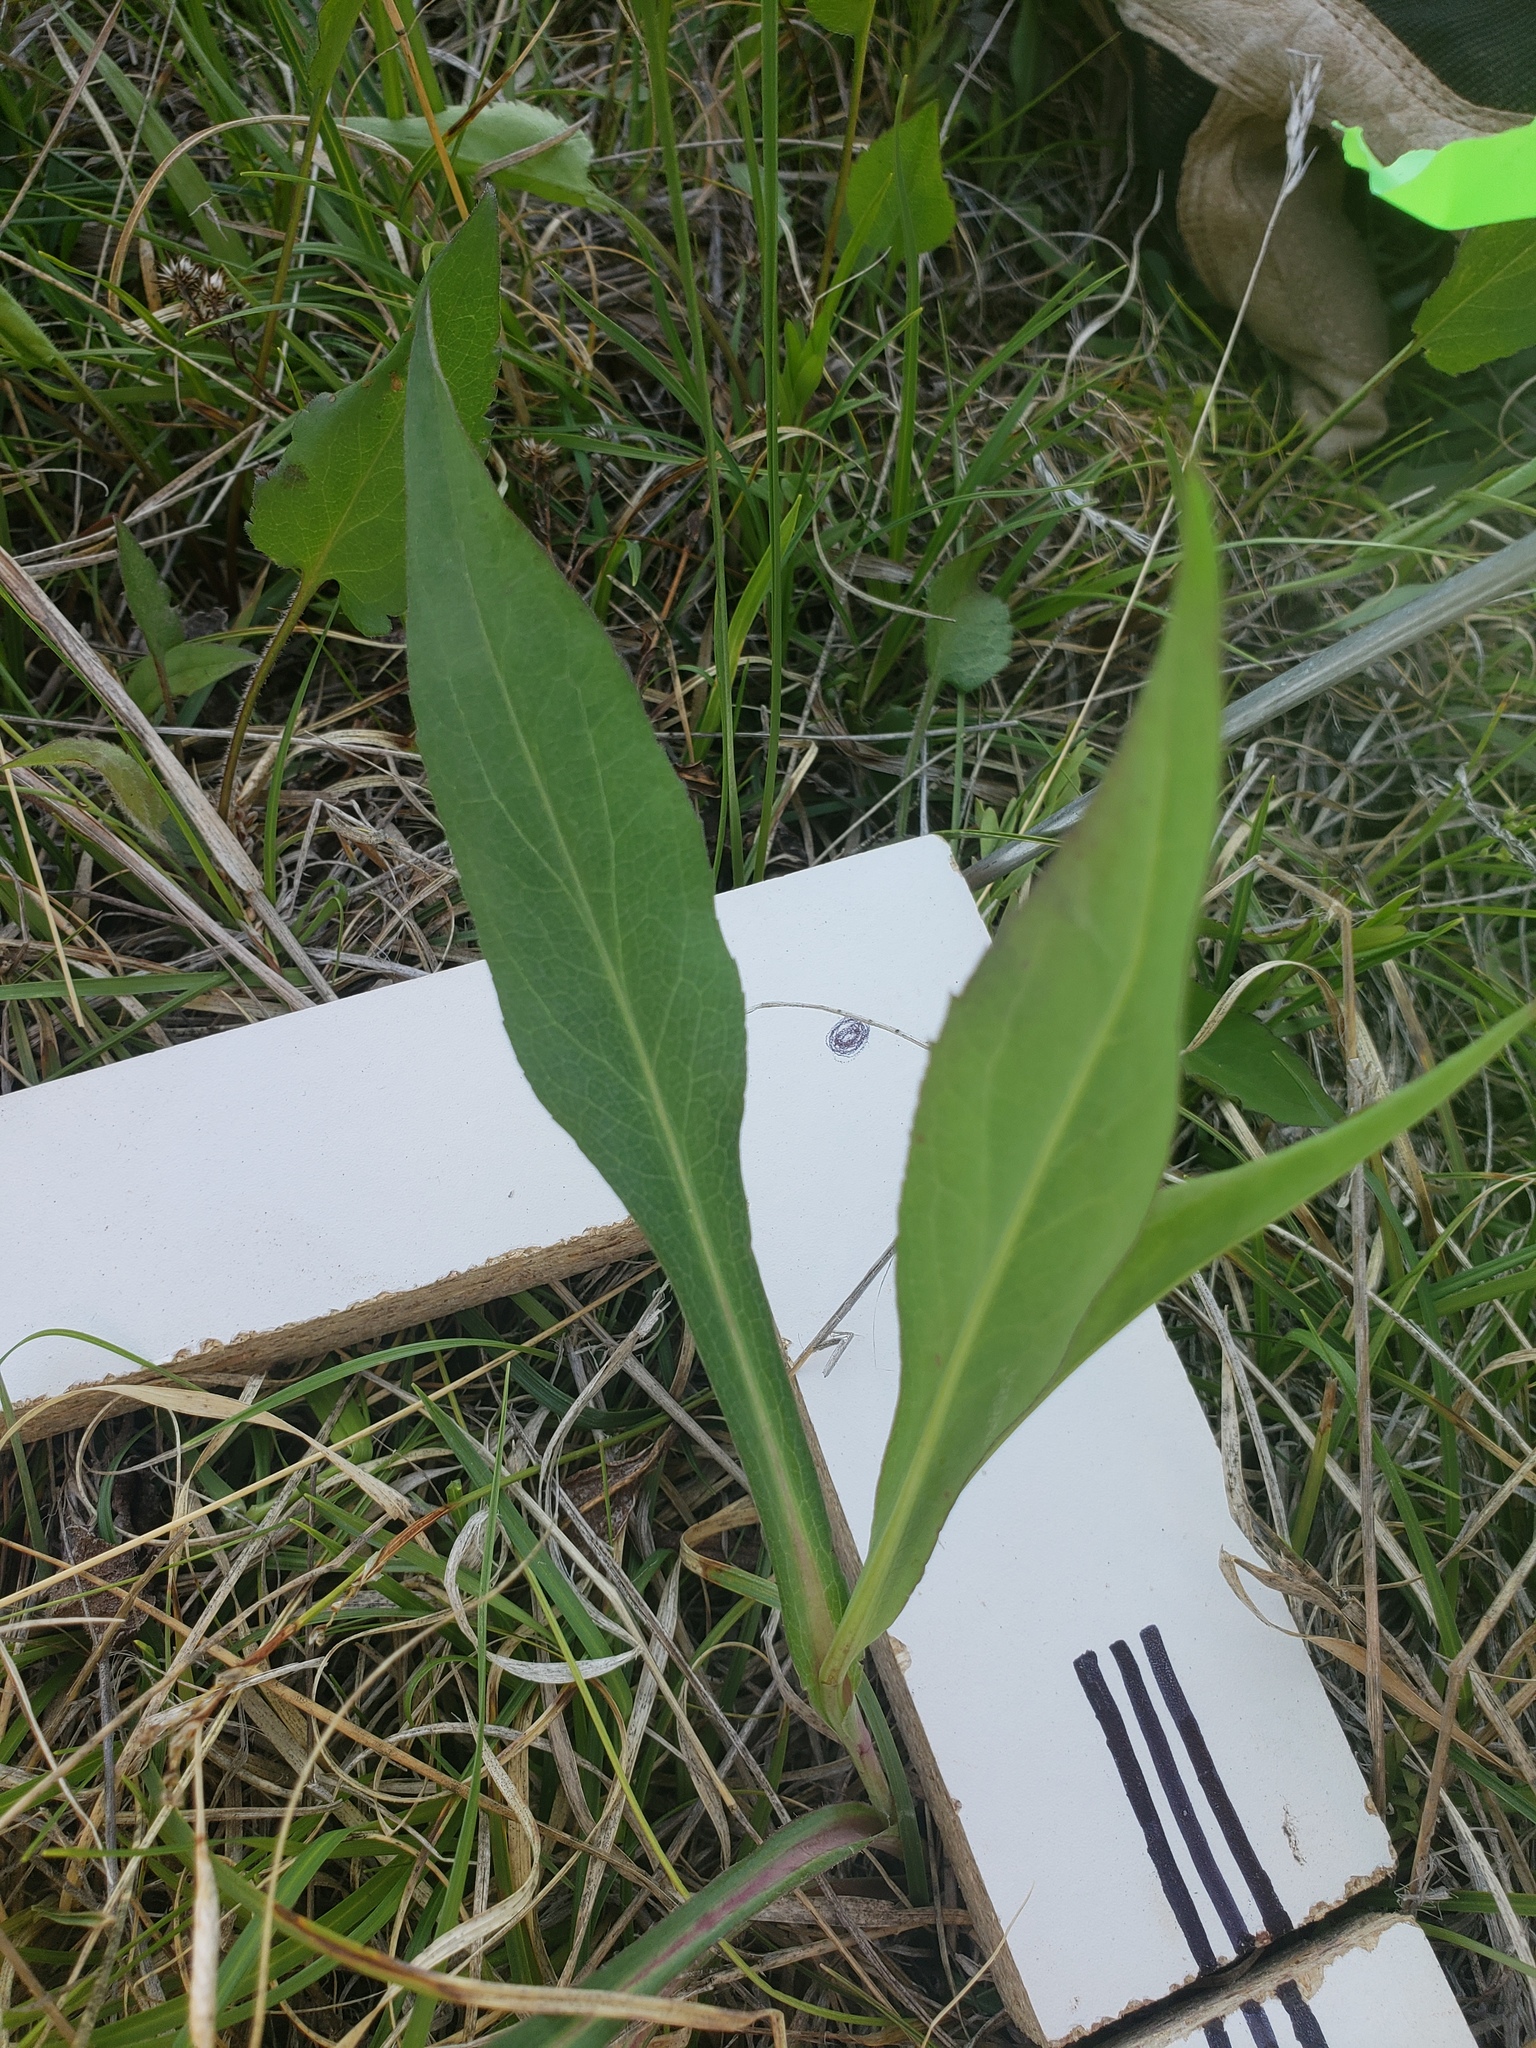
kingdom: Plantae
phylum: Tracheophyta
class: Magnoliopsida
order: Asterales
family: Asteraceae
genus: Symphyotrichum
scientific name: Symphyotrichum laeve
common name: Glaucous aster
